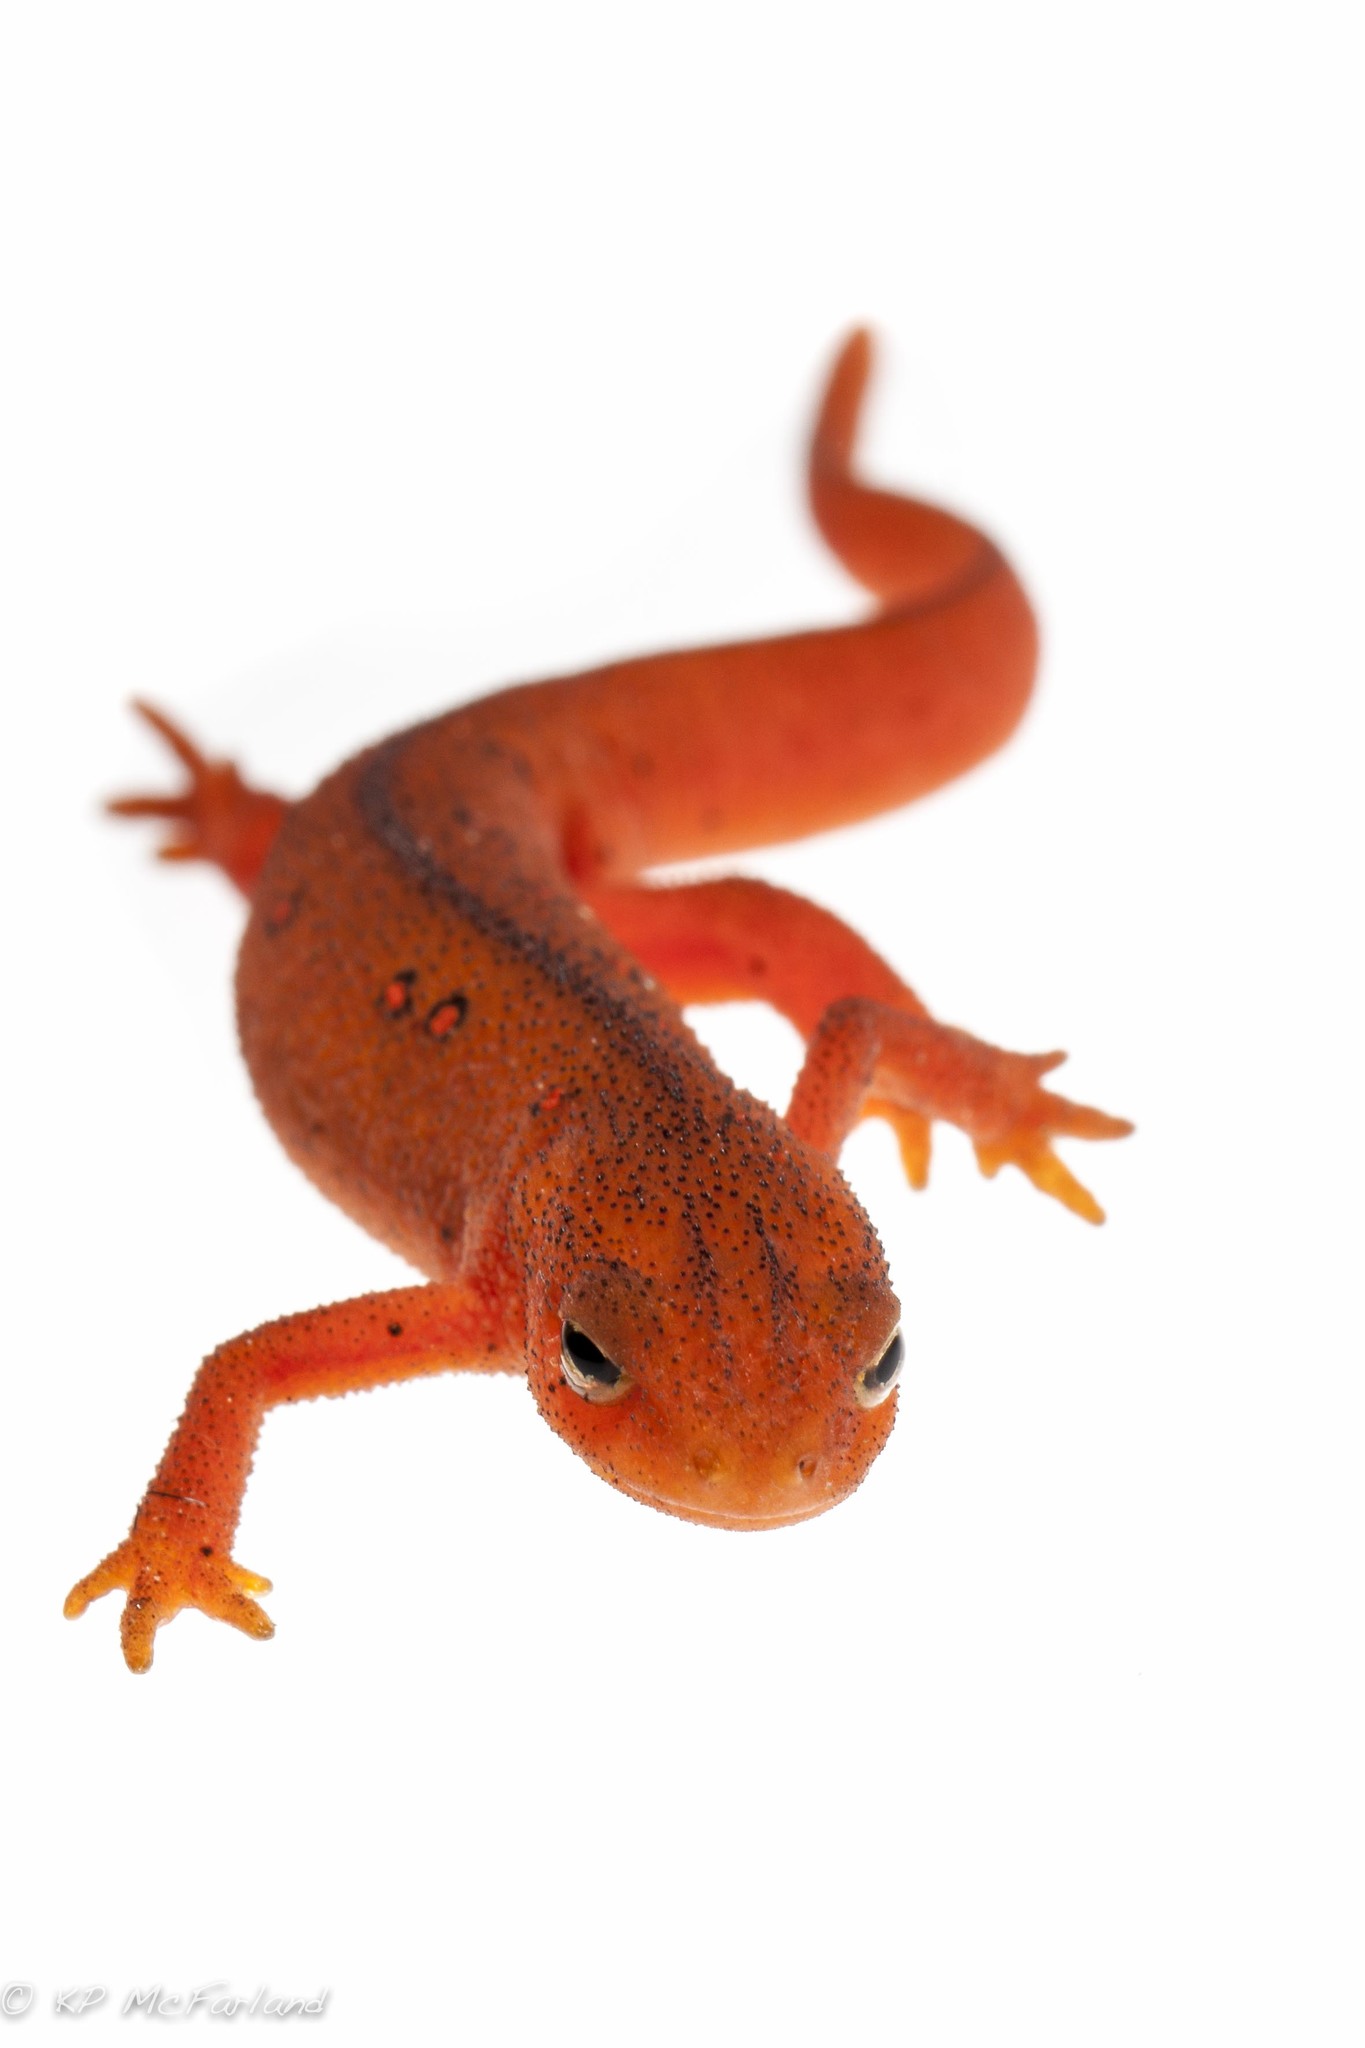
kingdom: Animalia
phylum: Chordata
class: Amphibia
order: Caudata
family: Salamandridae
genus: Notophthalmus
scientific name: Notophthalmus viridescens
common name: Eastern newt
